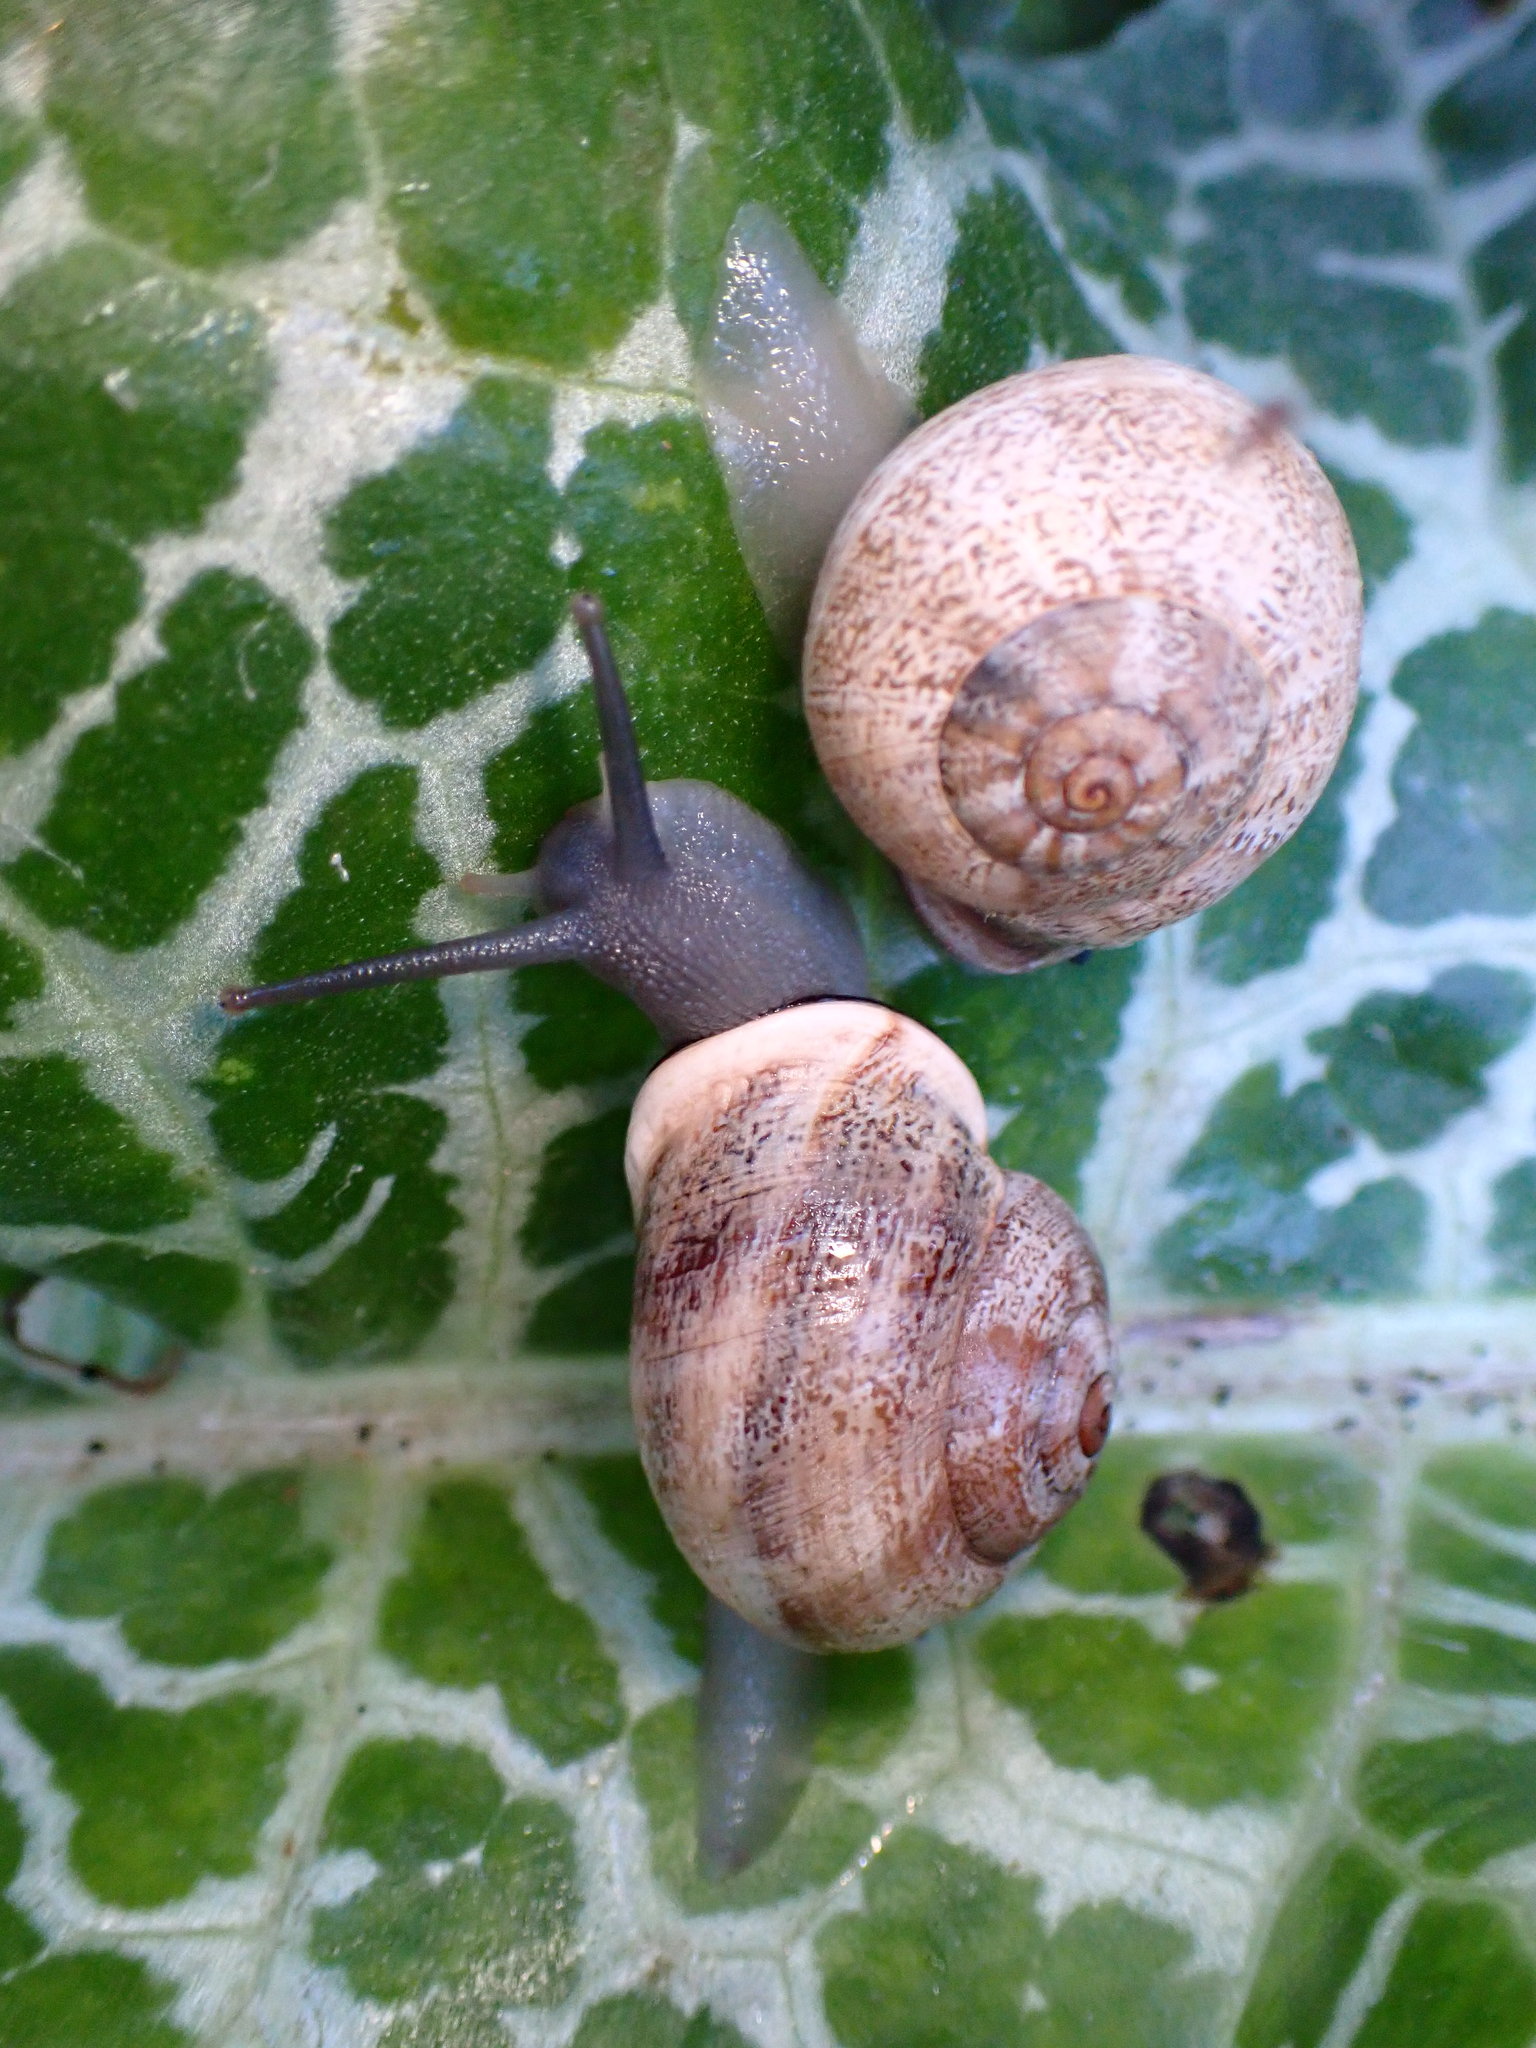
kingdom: Animalia
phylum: Mollusca
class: Gastropoda
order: Stylommatophora
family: Helicidae
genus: Otala
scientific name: Otala lactea
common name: Milk snail
